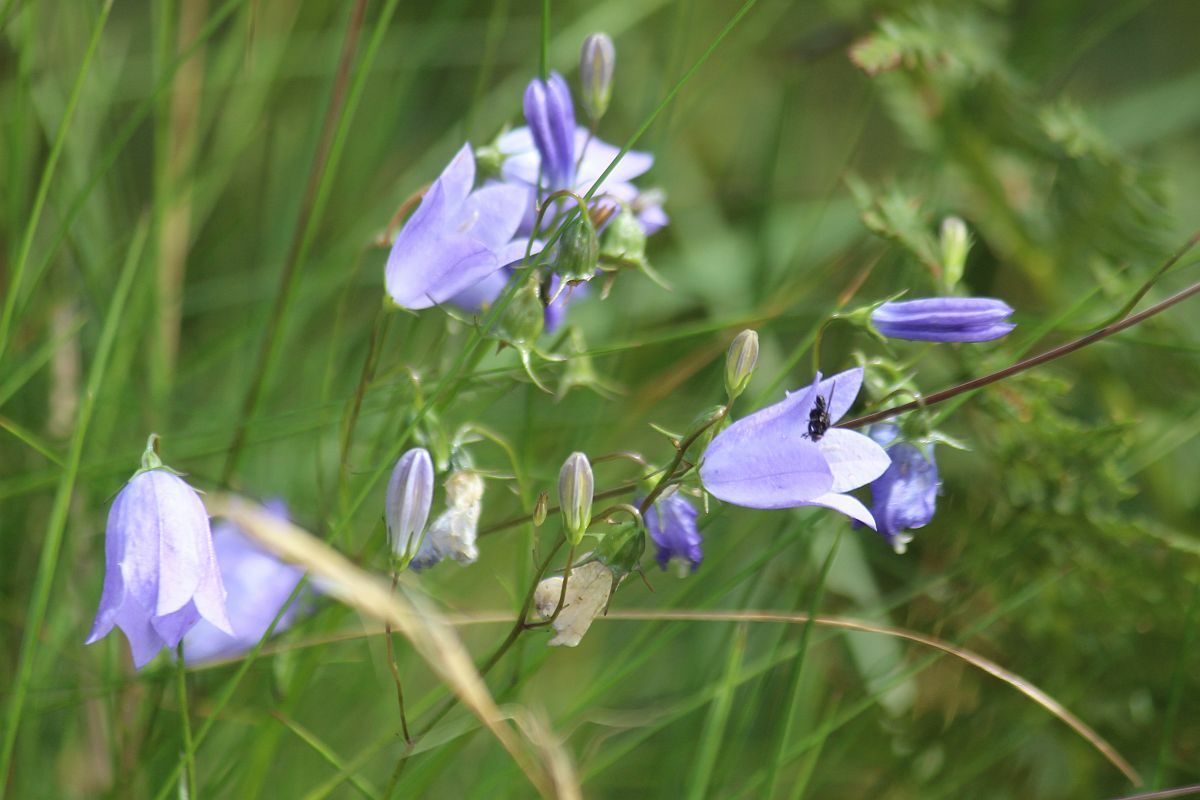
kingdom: Plantae
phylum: Tracheophyta
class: Magnoliopsida
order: Asterales
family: Campanulaceae
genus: Campanula
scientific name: Campanula rotundifolia
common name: Harebell
